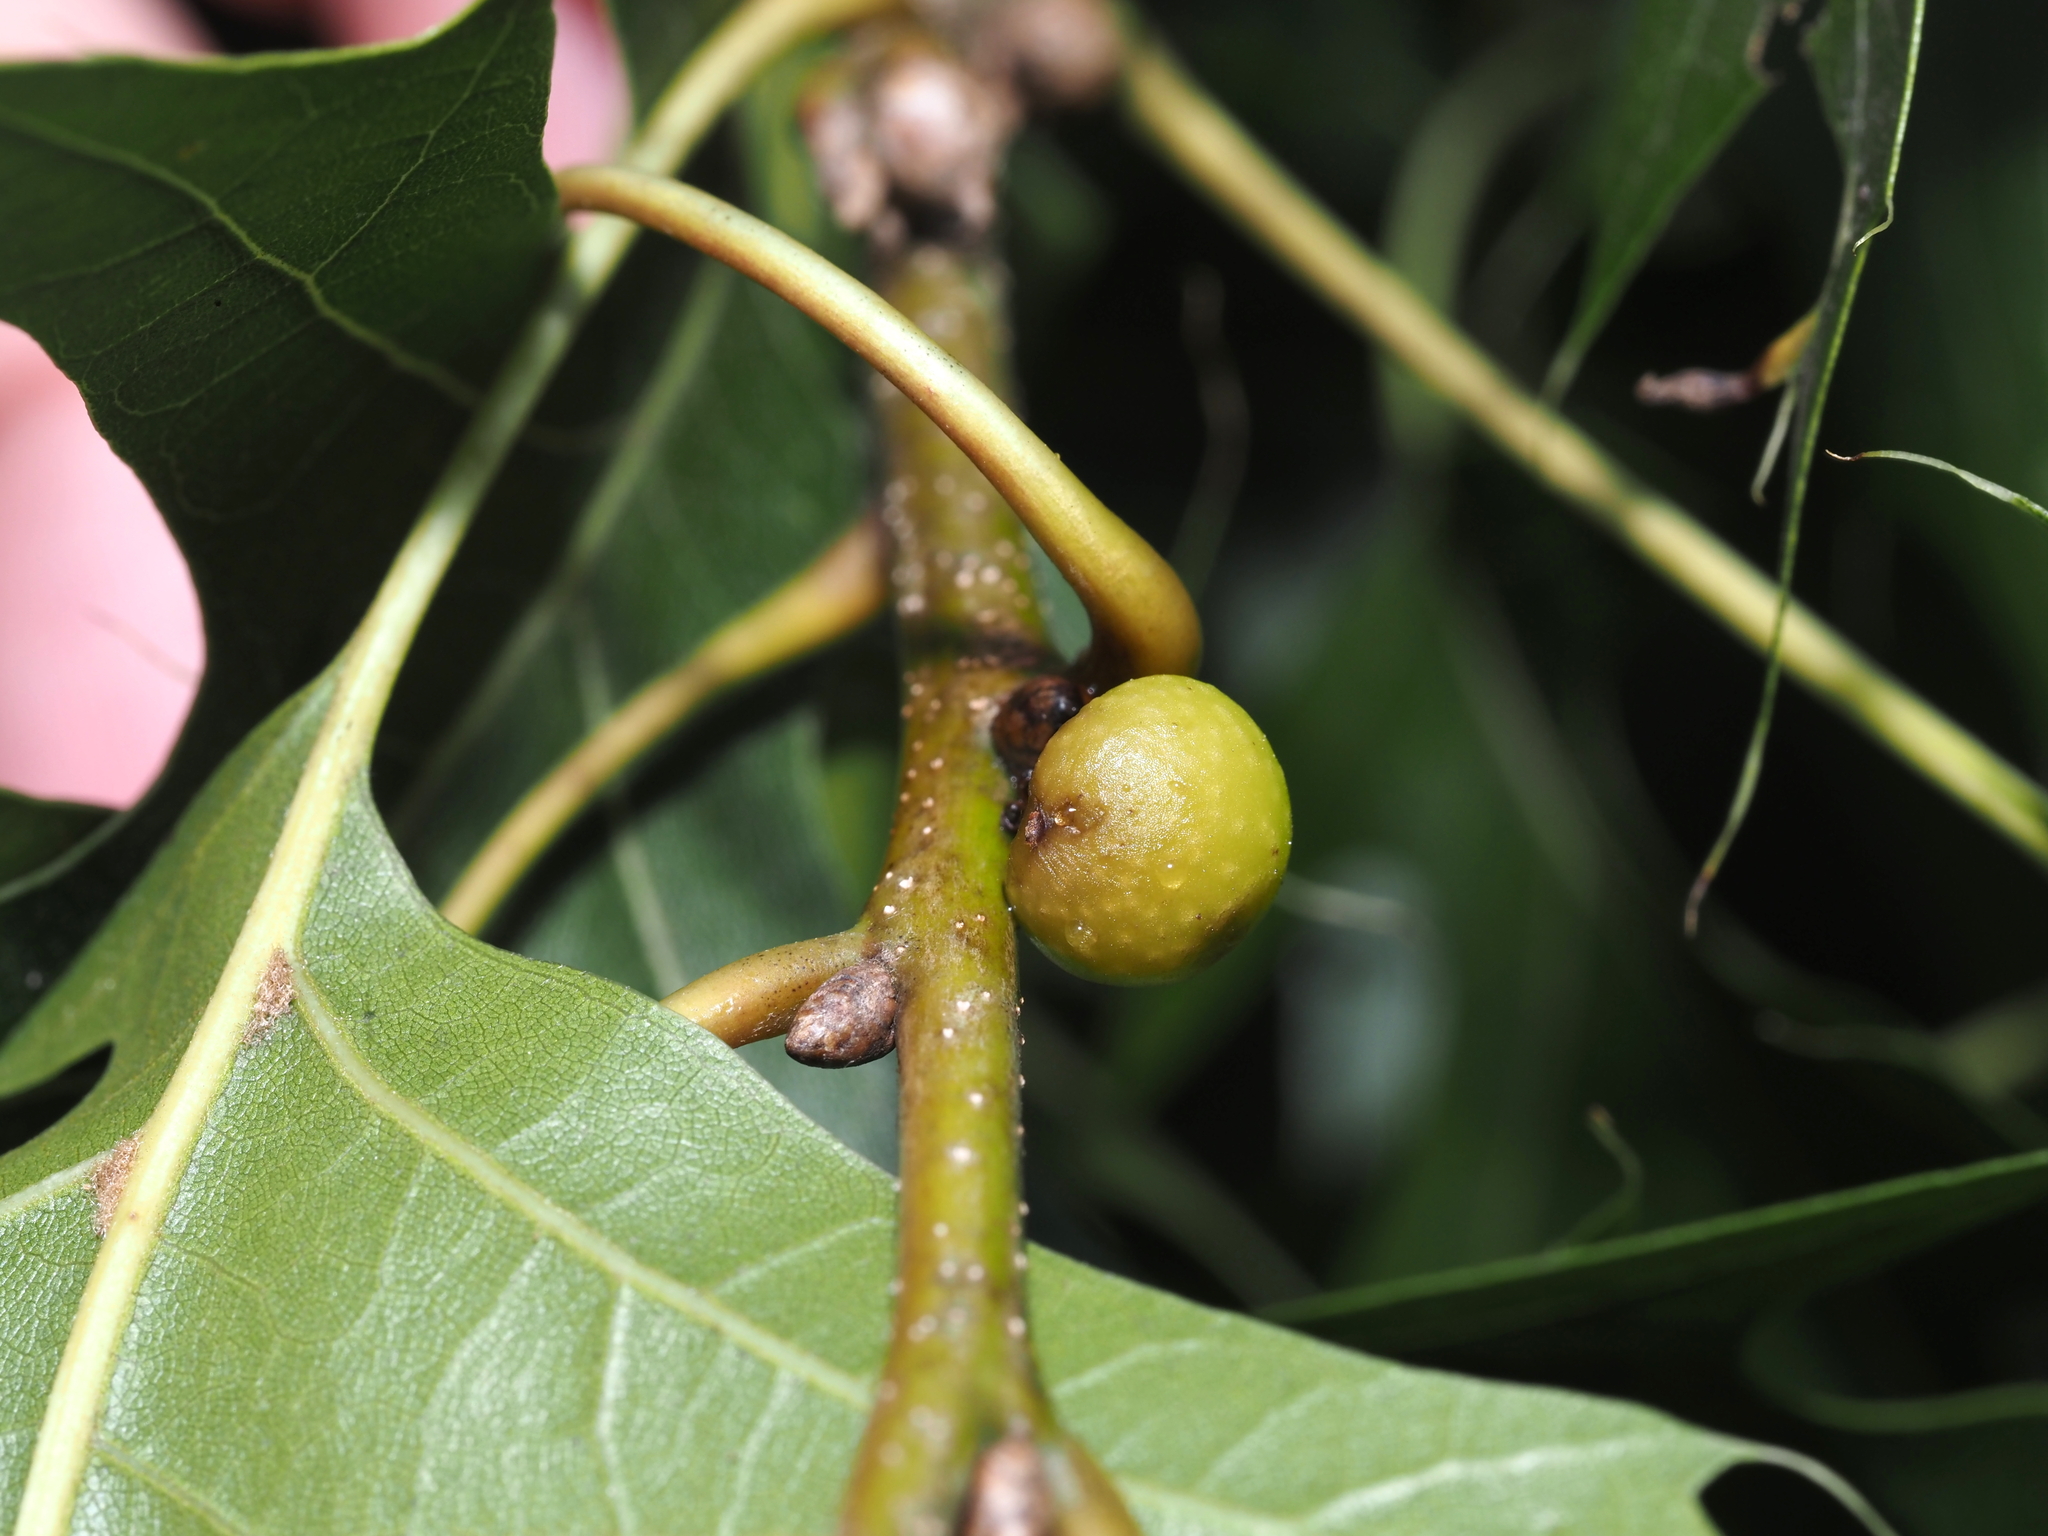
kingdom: Animalia
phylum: Arthropoda
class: Insecta
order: Hymenoptera
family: Cynipidae
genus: Callirhytis
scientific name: Callirhytis
